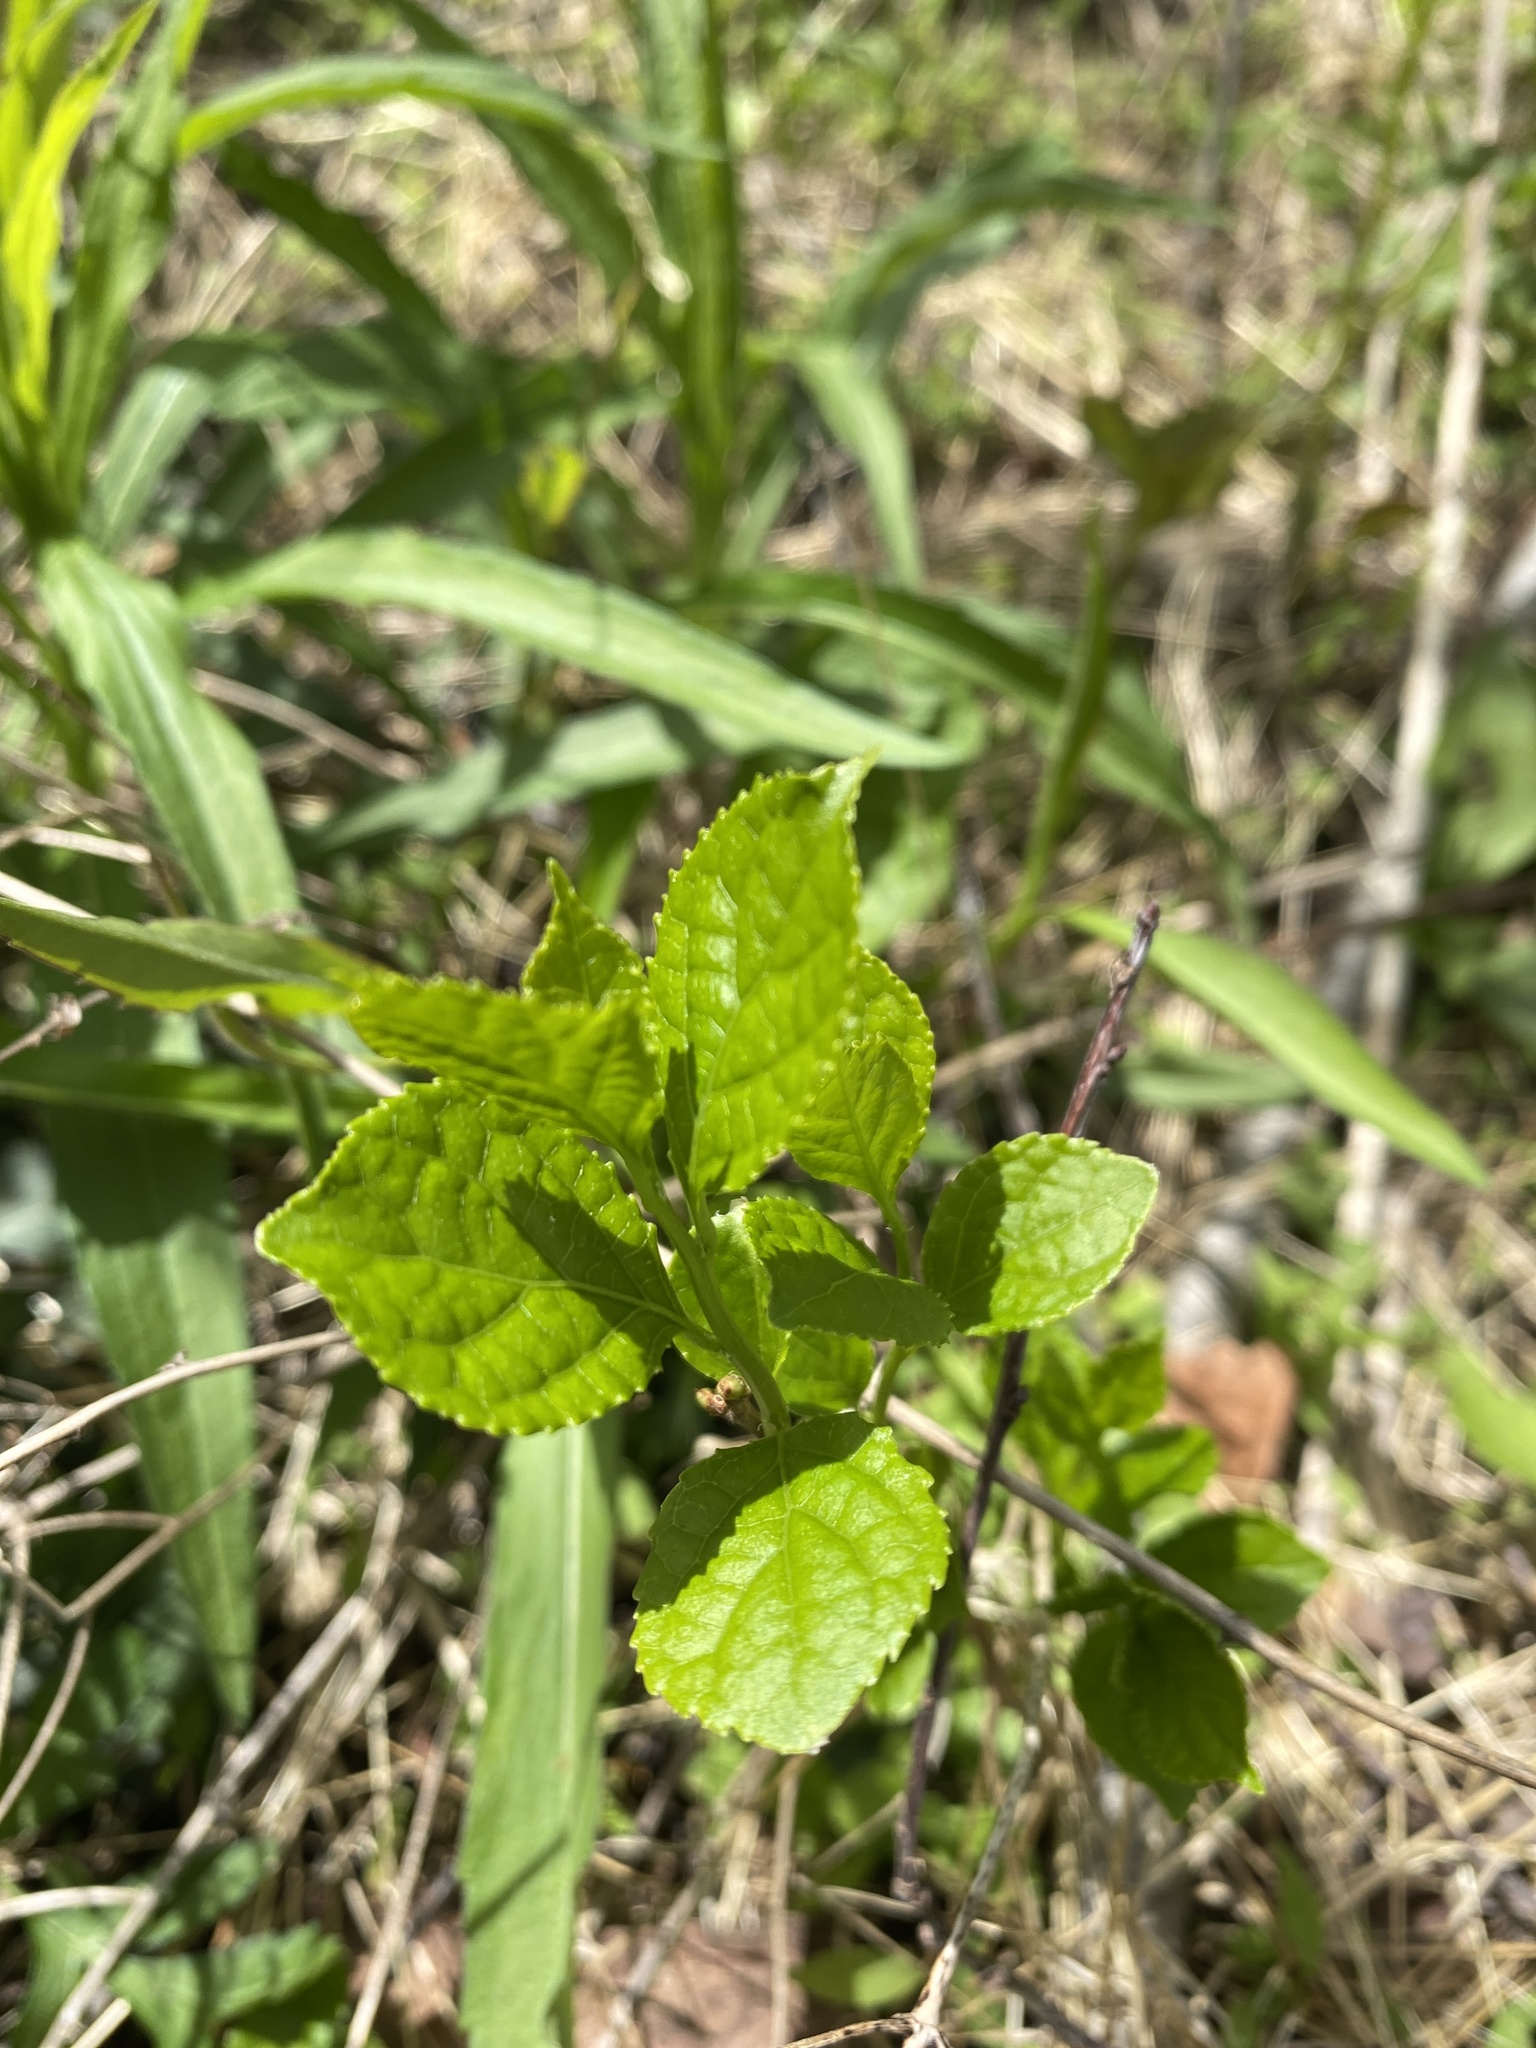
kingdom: Plantae
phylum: Tracheophyta
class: Magnoliopsida
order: Celastrales
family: Celastraceae
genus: Celastrus
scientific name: Celastrus orbiculatus
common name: Oriental bittersweet
